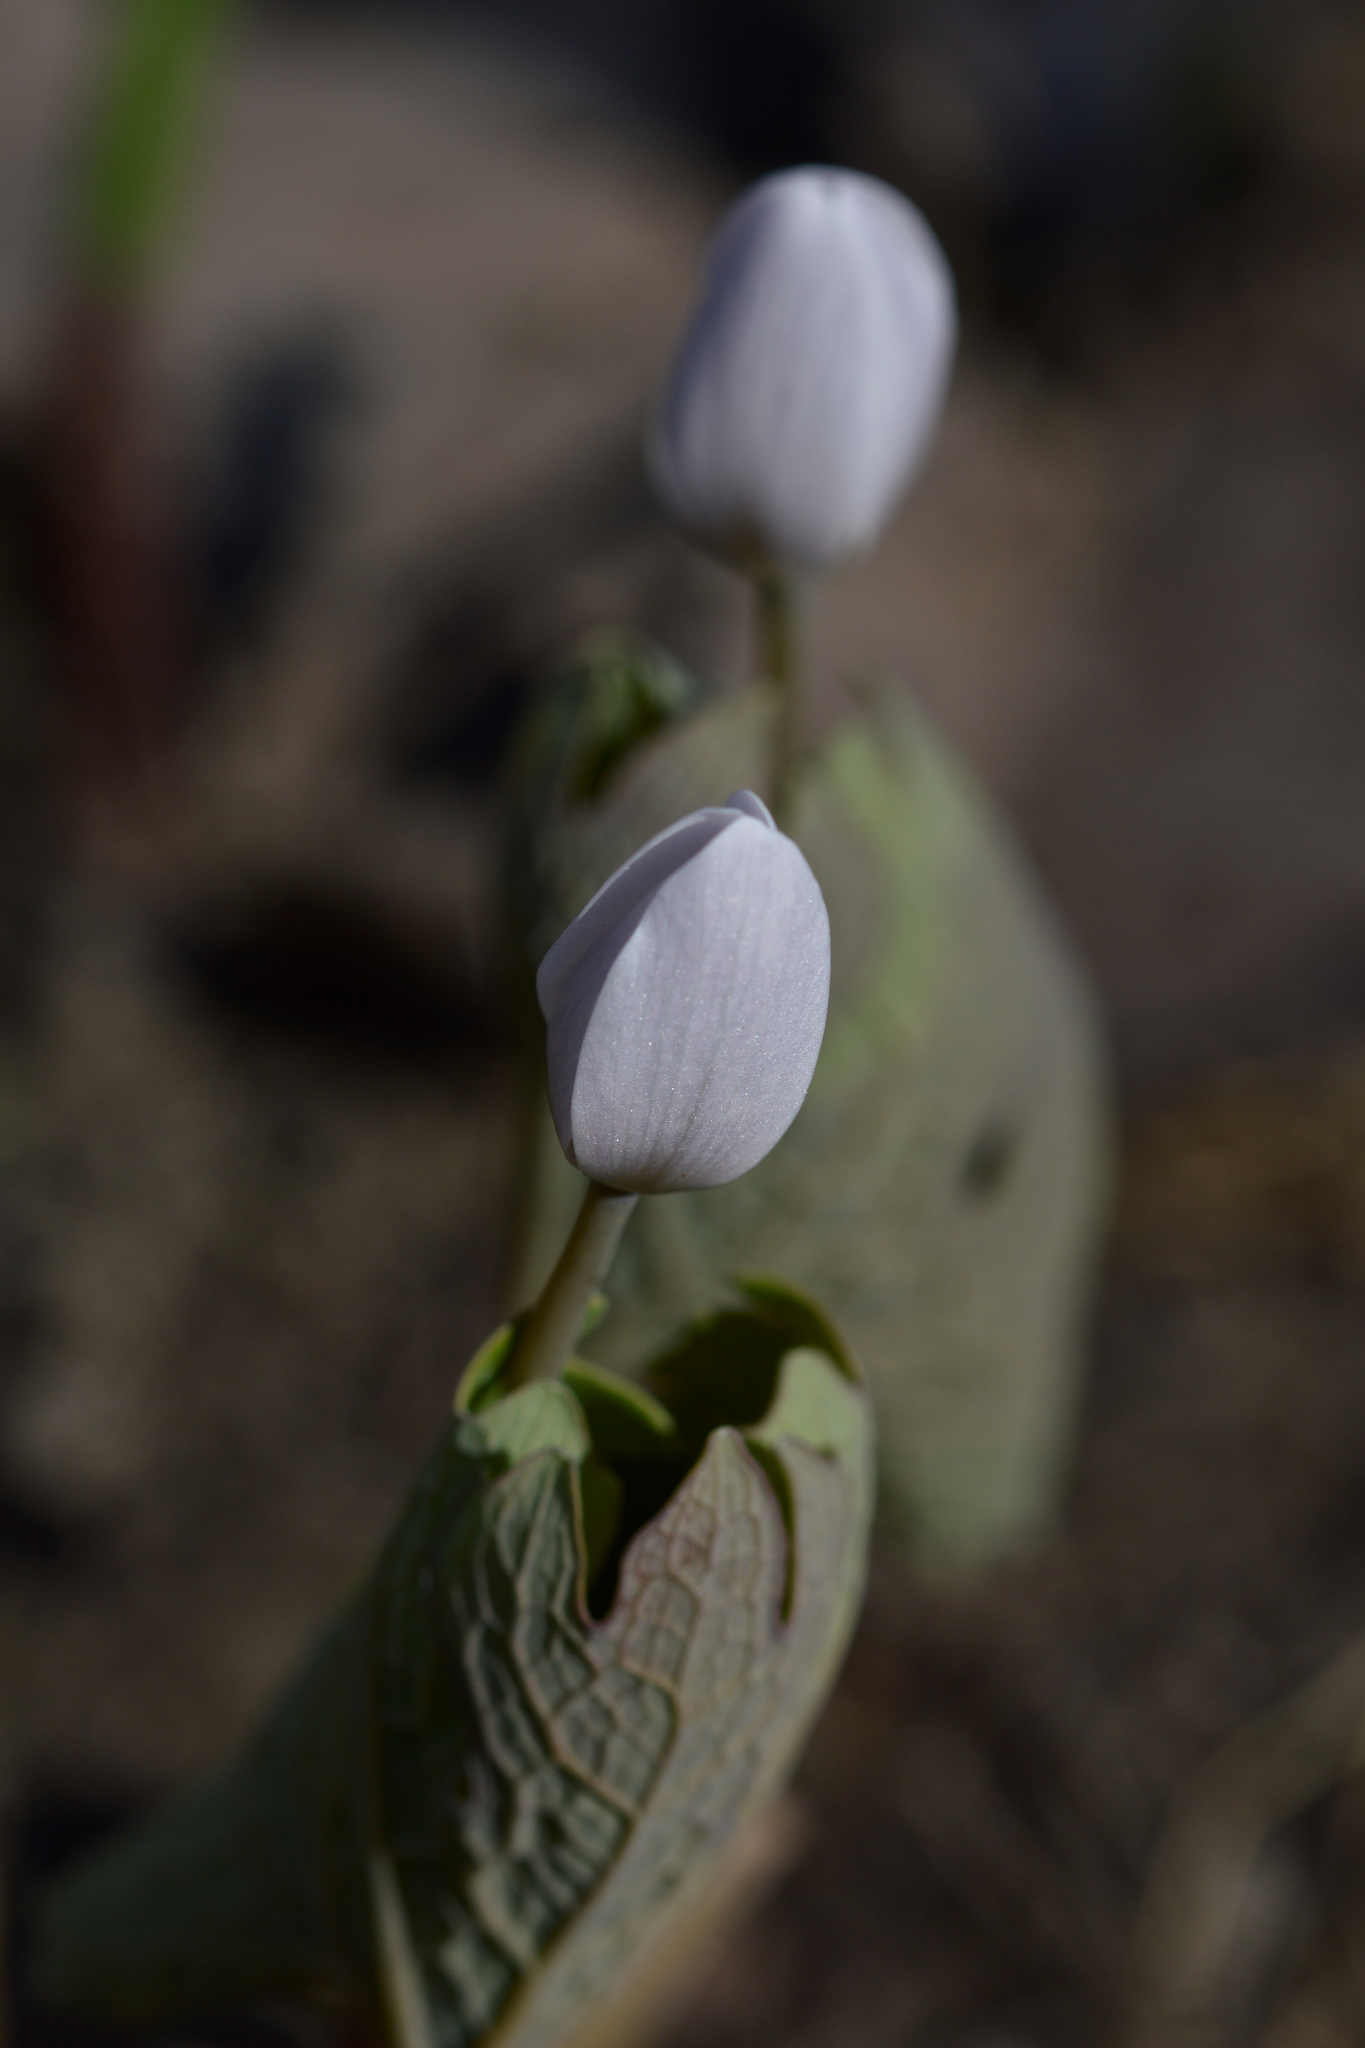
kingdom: Plantae
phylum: Tracheophyta
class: Magnoliopsida
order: Ranunculales
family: Papaveraceae
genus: Sanguinaria
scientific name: Sanguinaria canadensis
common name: Bloodroot
